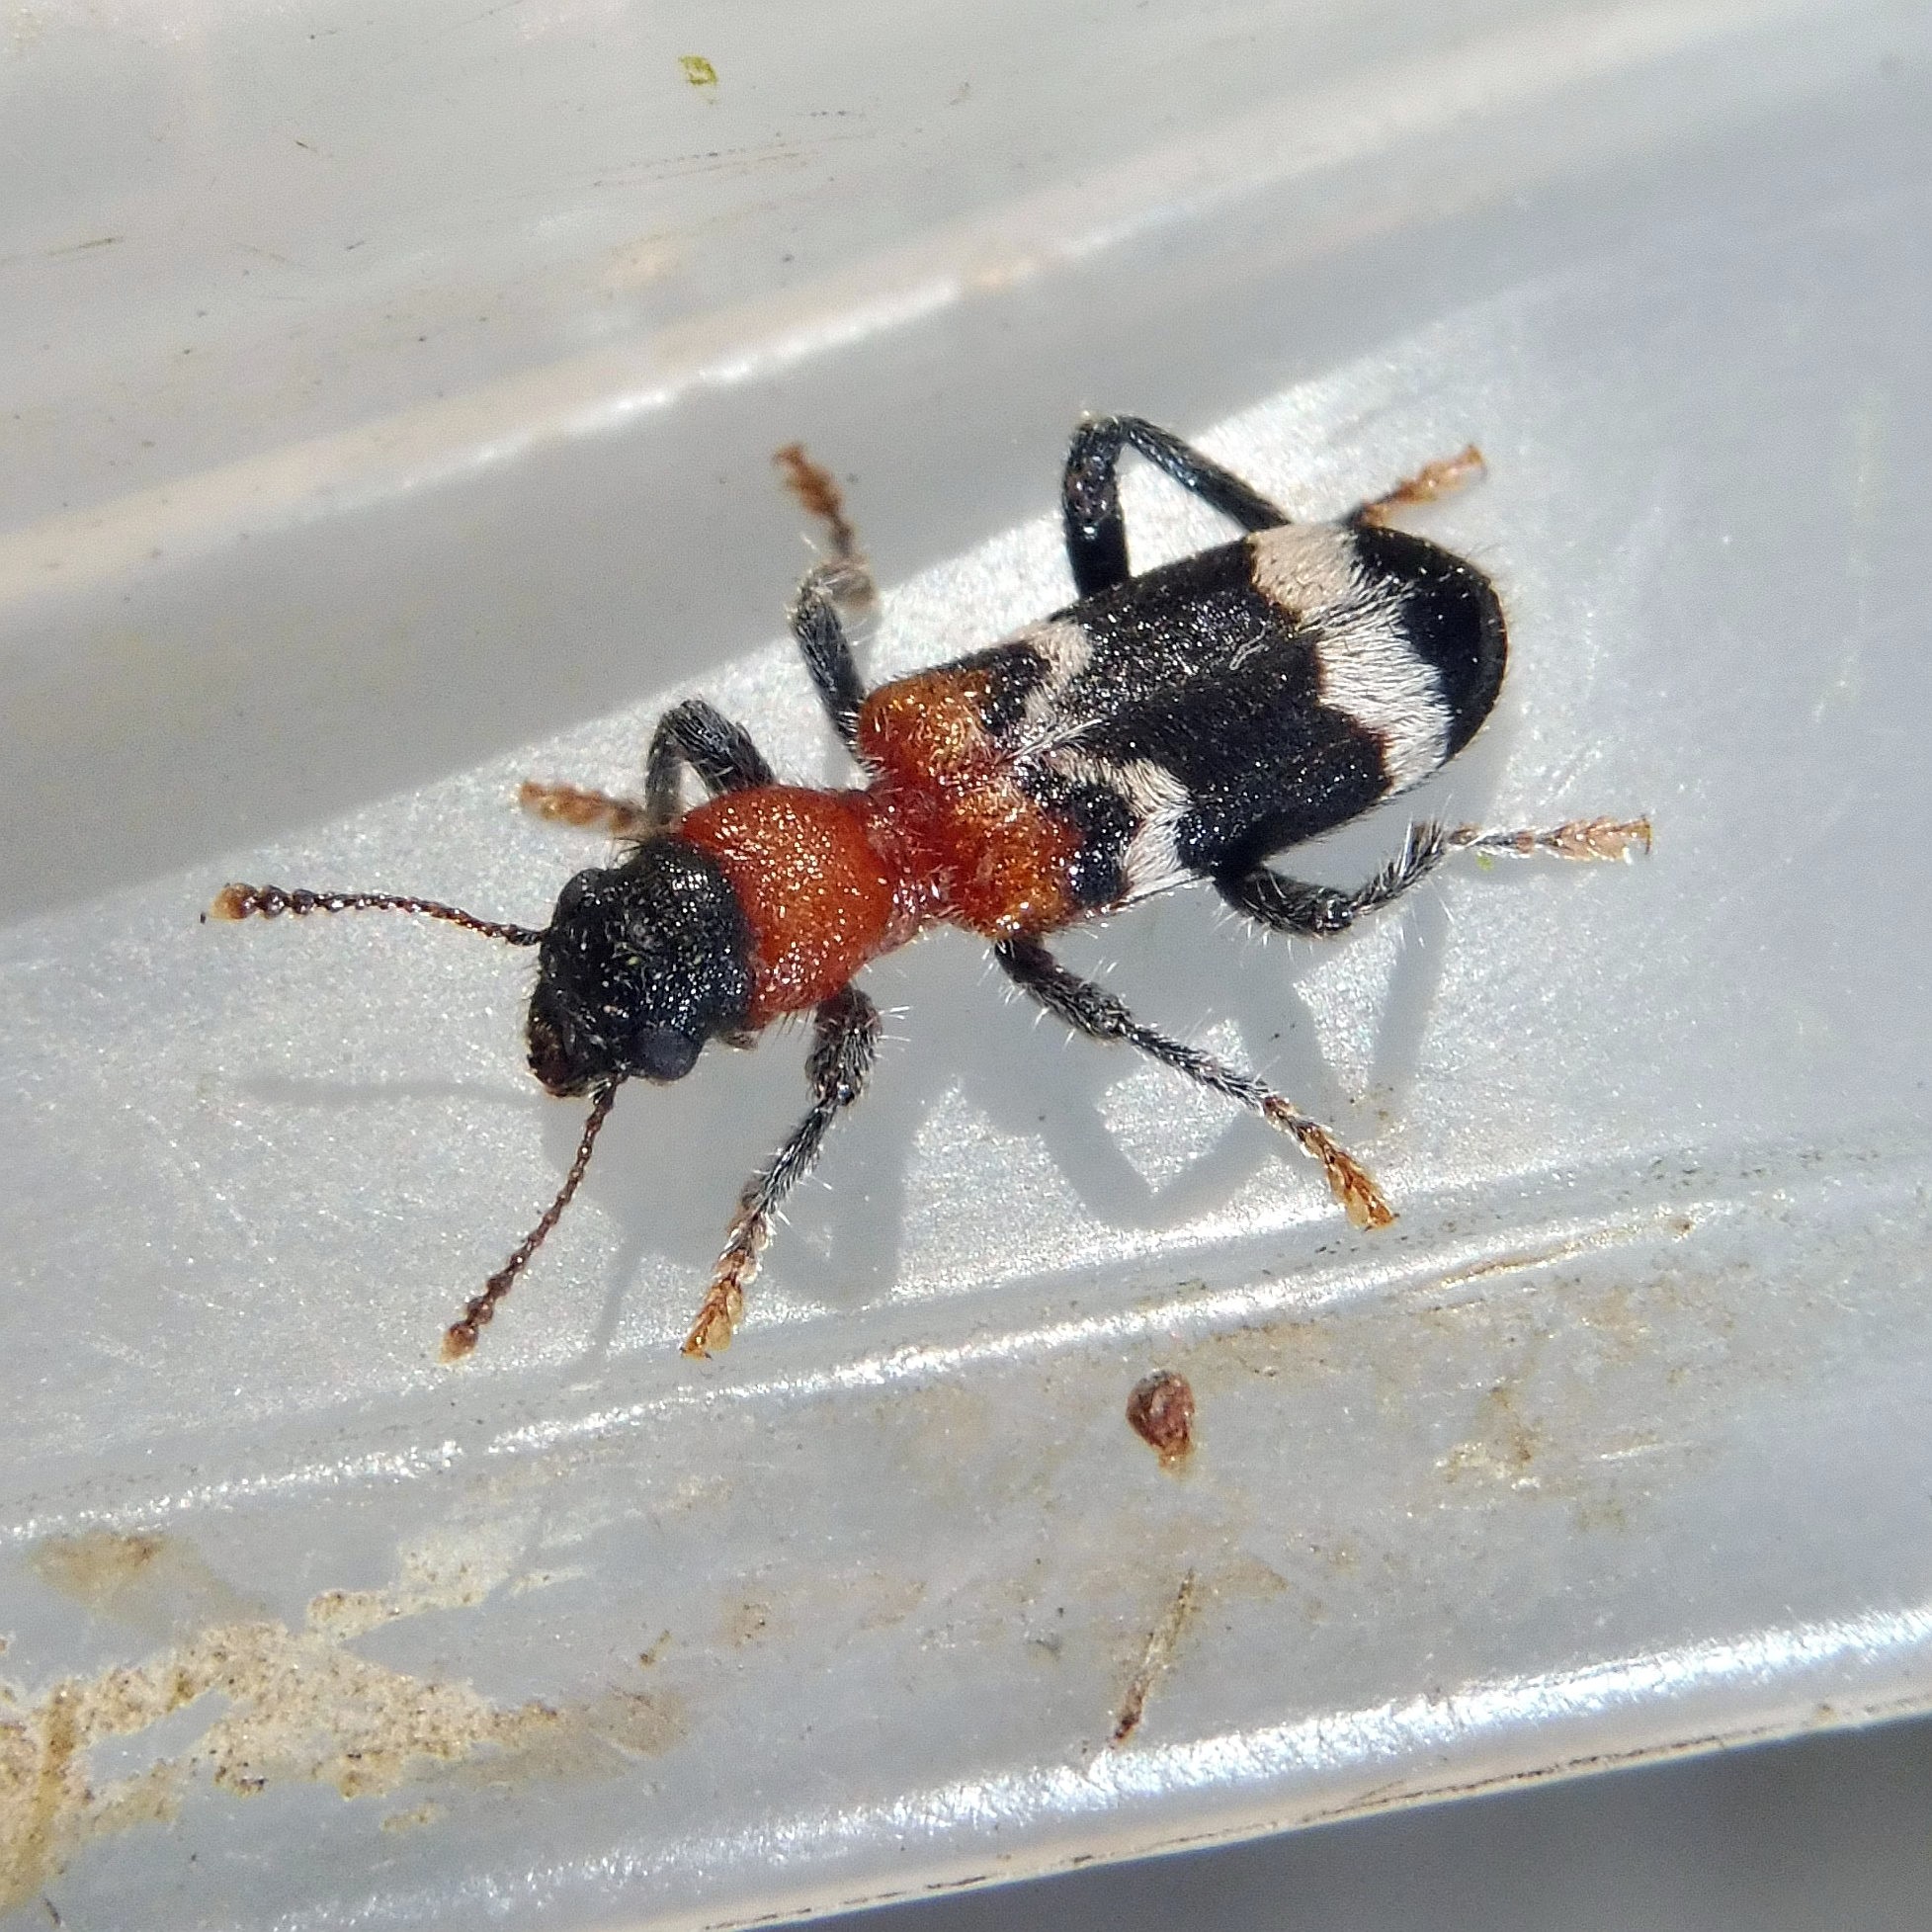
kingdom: Animalia
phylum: Arthropoda
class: Insecta
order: Coleoptera
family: Cleridae
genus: Thanasimus
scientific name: Thanasimus formicarius
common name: Ant beetle
